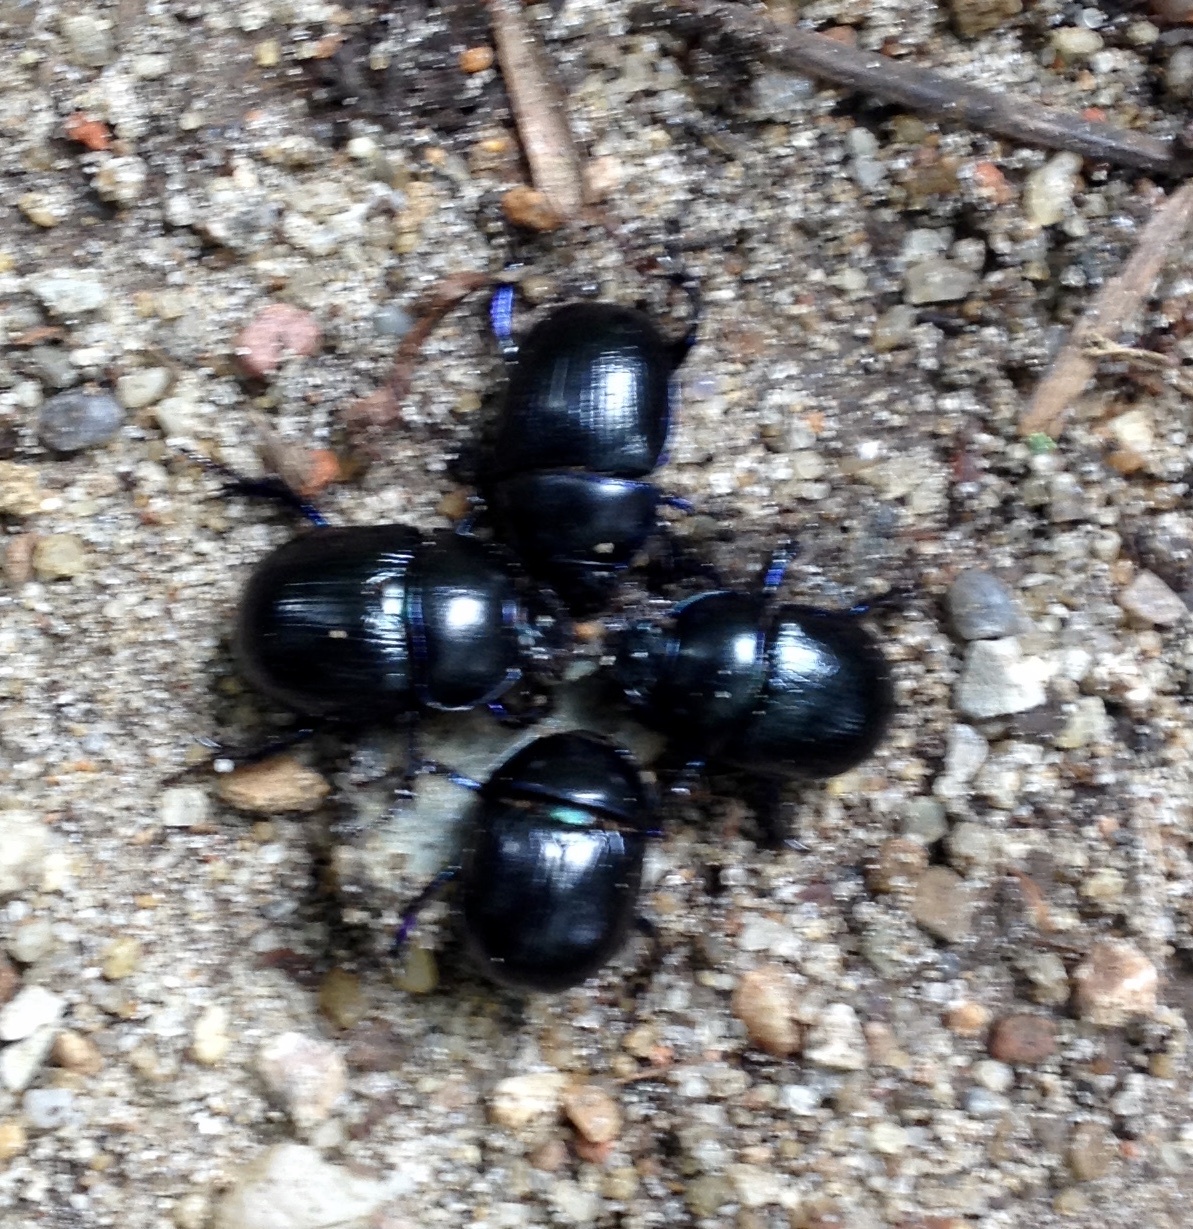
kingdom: Animalia
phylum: Arthropoda
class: Insecta
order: Coleoptera
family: Geotrupidae
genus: Anoplotrupes
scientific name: Anoplotrupes stercorosus
